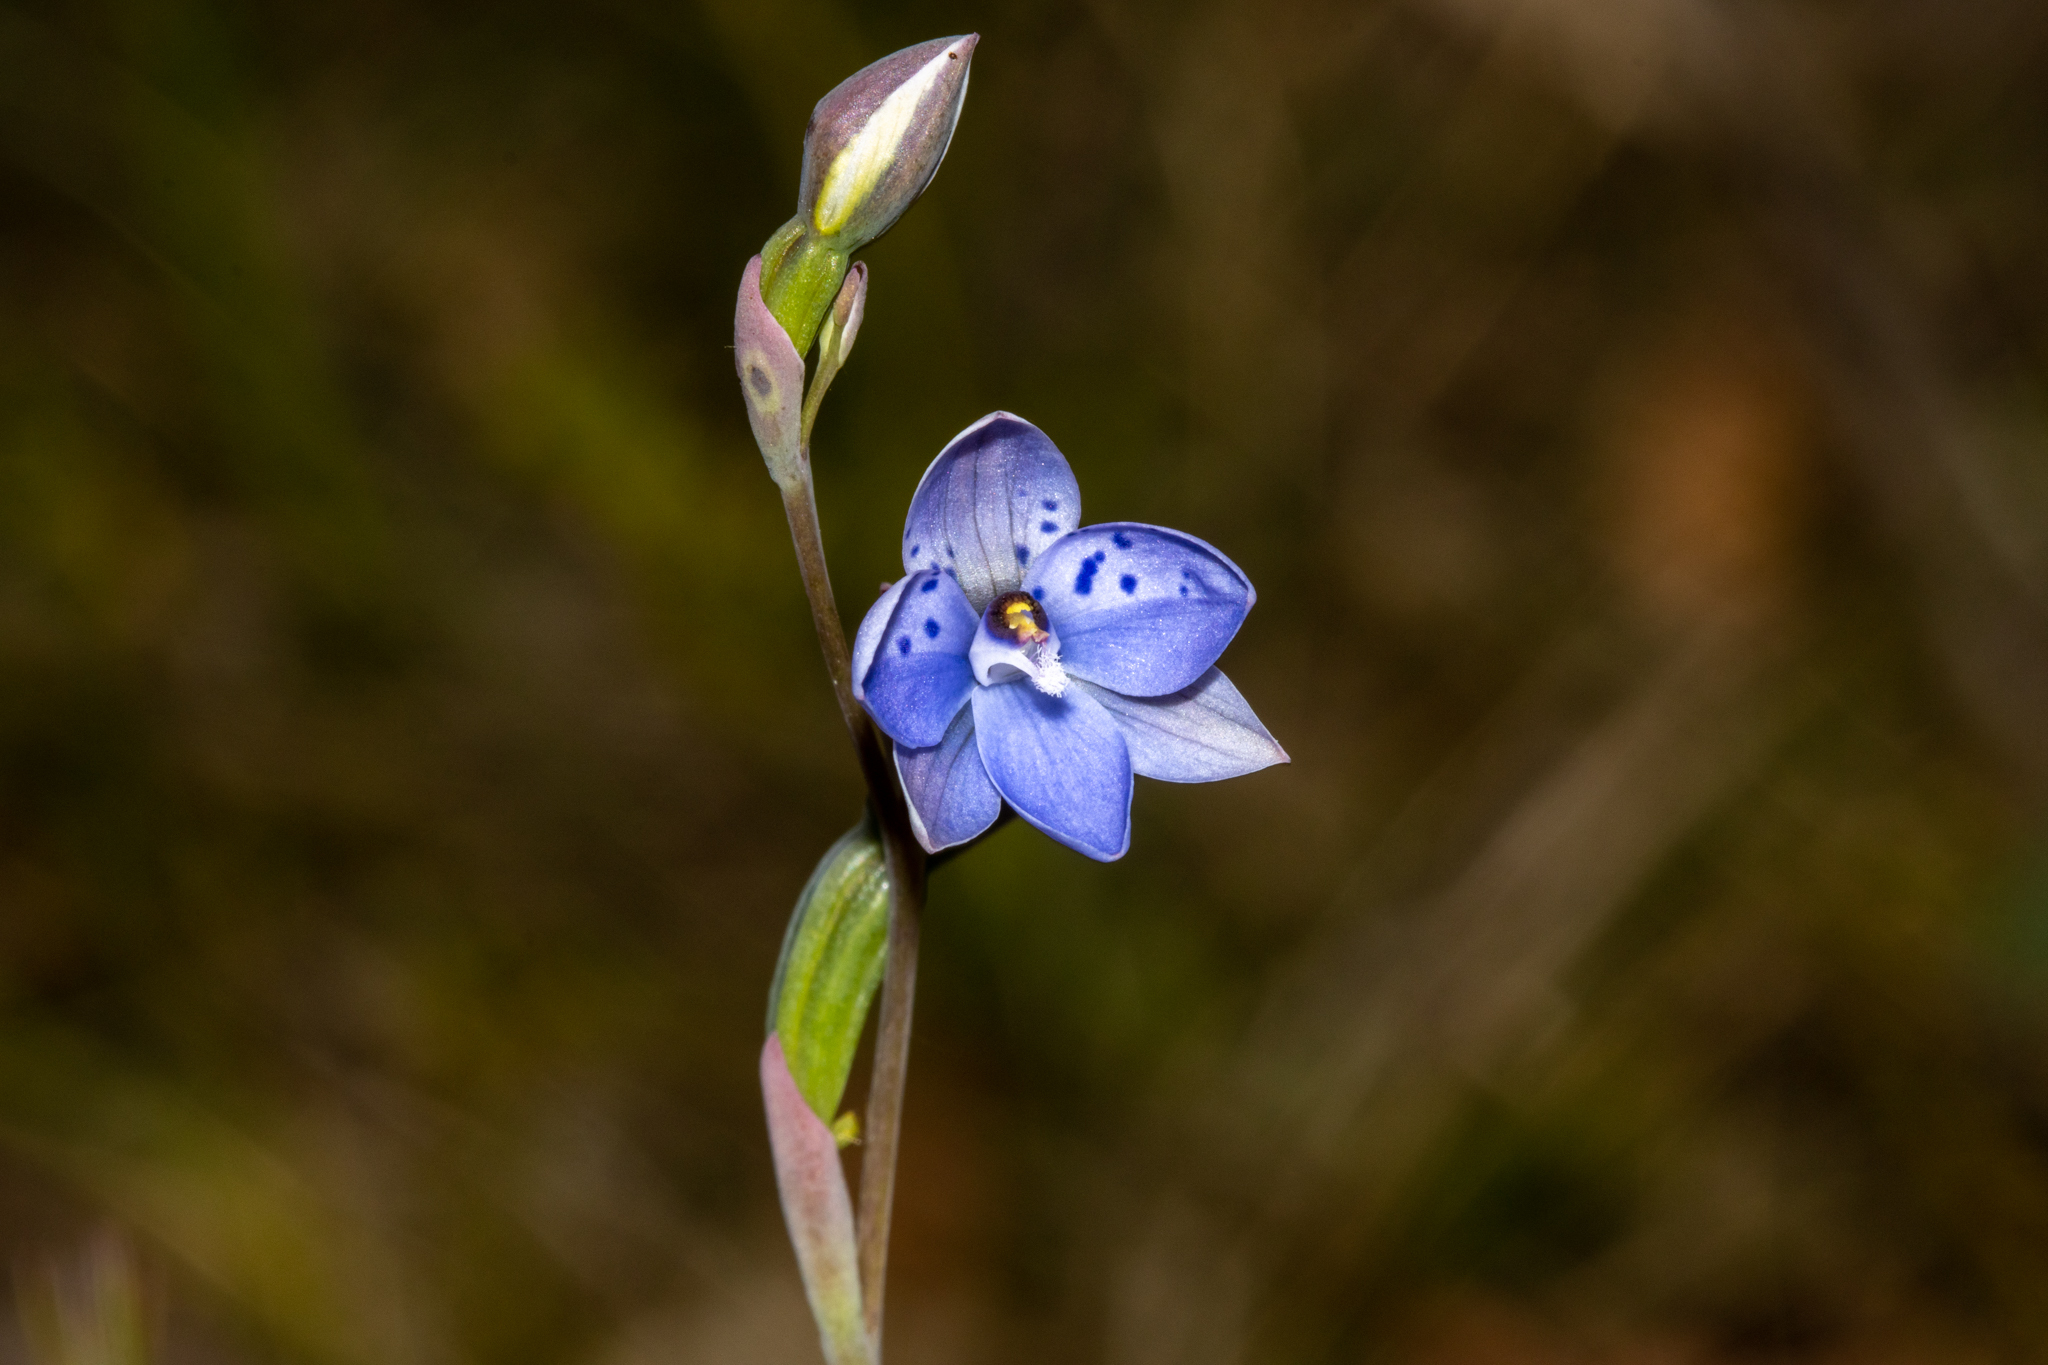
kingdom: Plantae
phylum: Tracheophyta
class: Liliopsida
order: Asparagales
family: Orchidaceae
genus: Thelymitra
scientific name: Thelymitra ixioides
